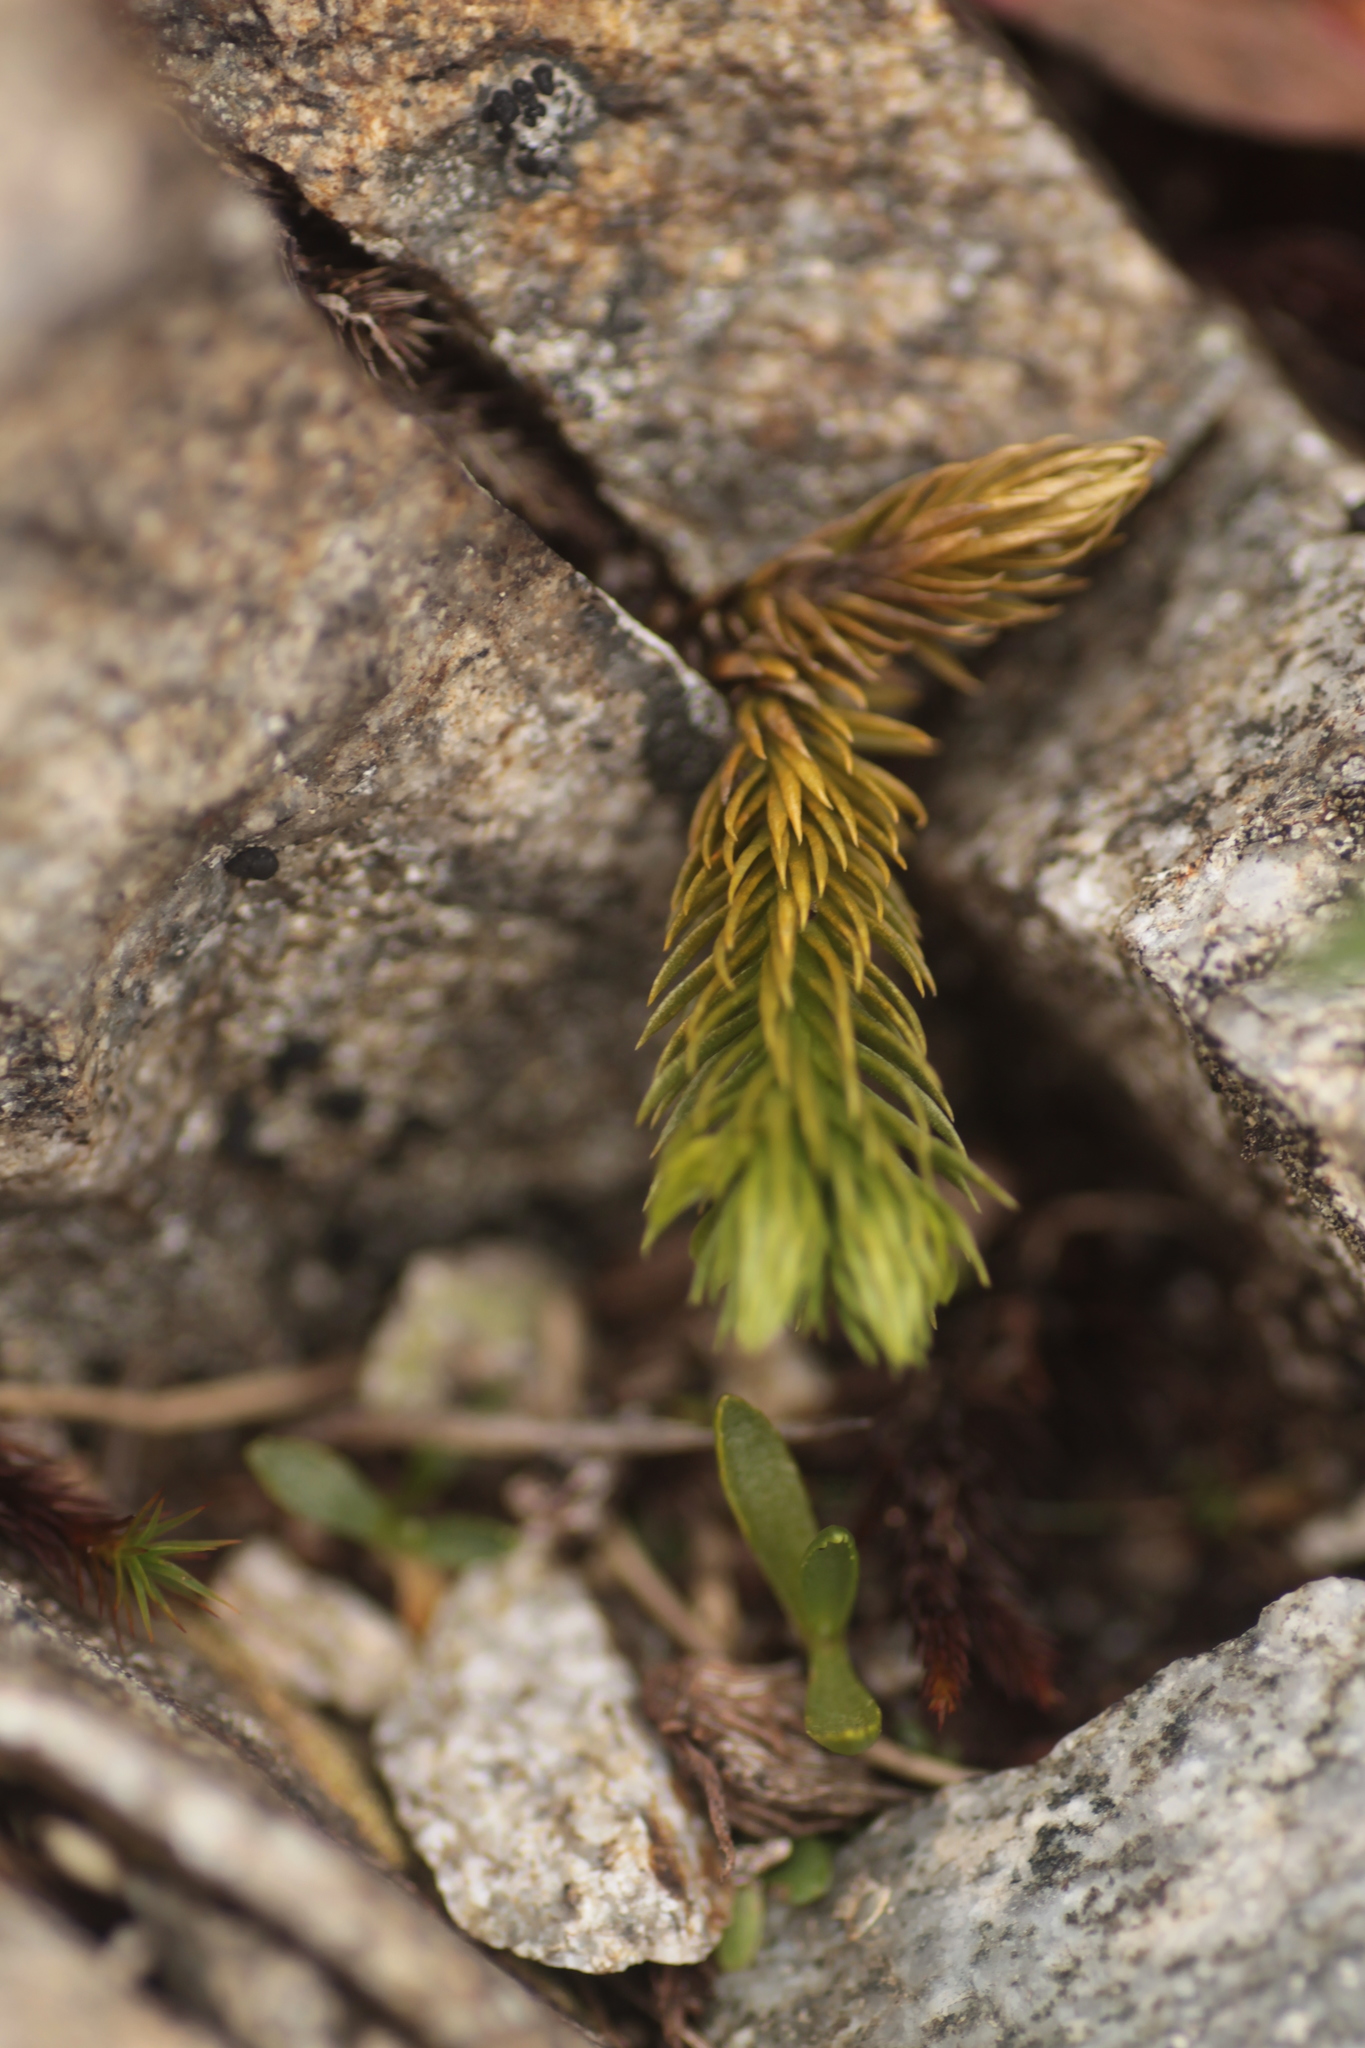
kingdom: Plantae
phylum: Tracheophyta
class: Lycopodiopsida
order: Lycopodiales
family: Lycopodiaceae
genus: Huperzia
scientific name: Huperzia selago
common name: Northern firmoss
